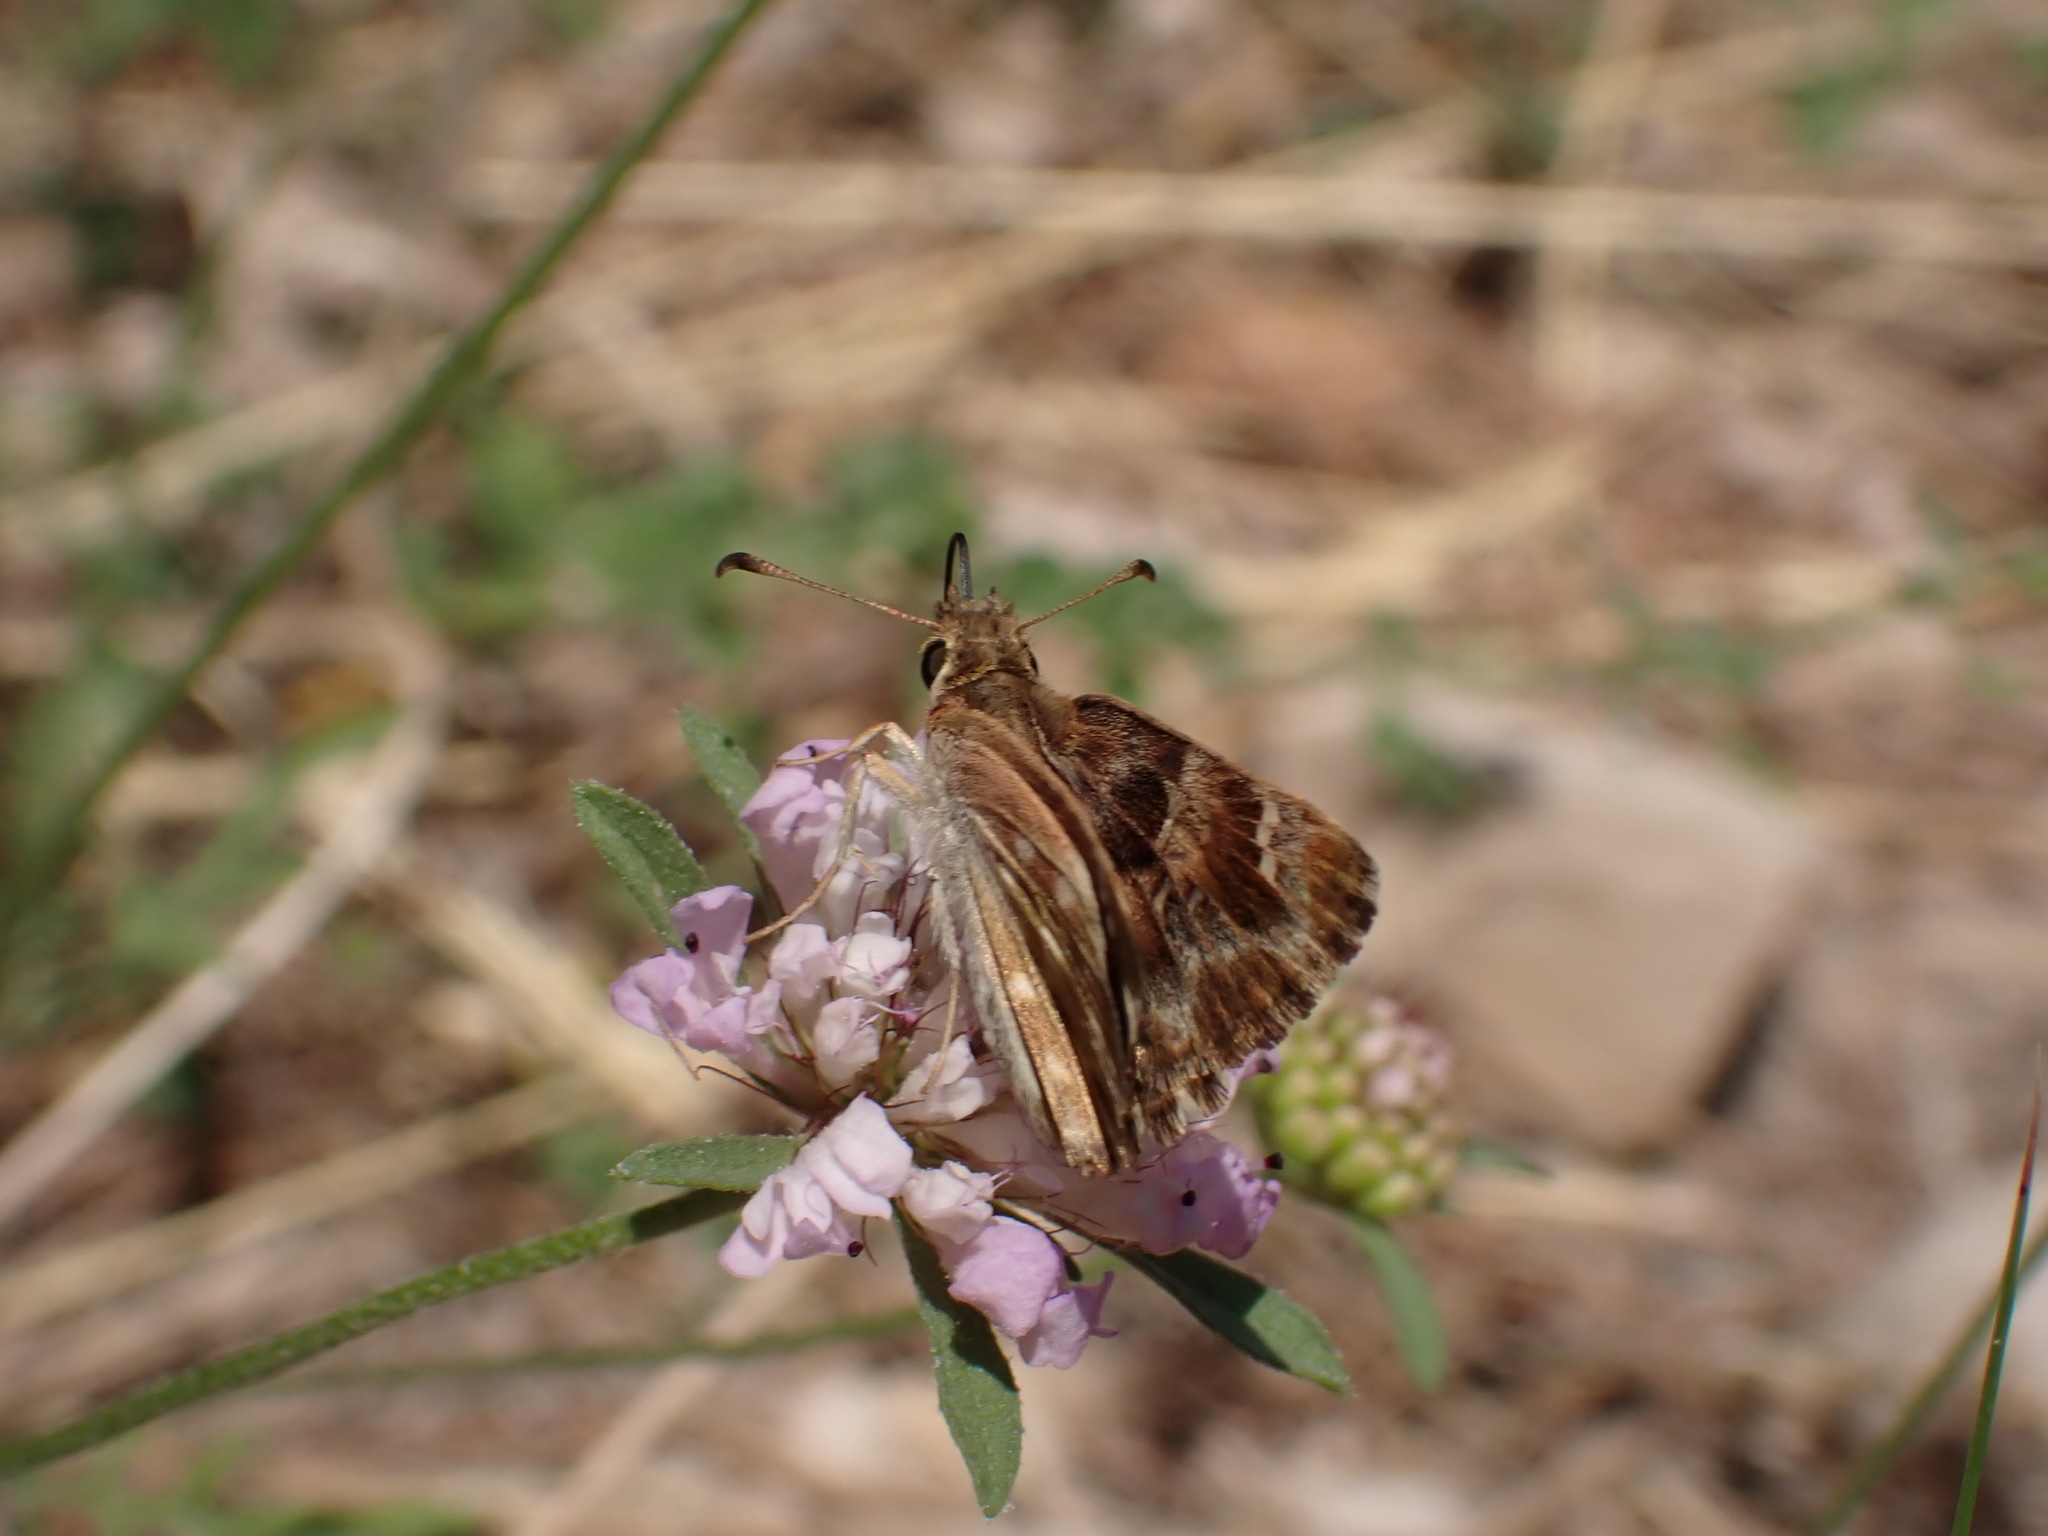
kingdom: Animalia
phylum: Arthropoda
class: Insecta
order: Lepidoptera
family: Hesperiidae
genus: Carcharodus
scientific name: Carcharodus alceae
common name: Mallow skipper
